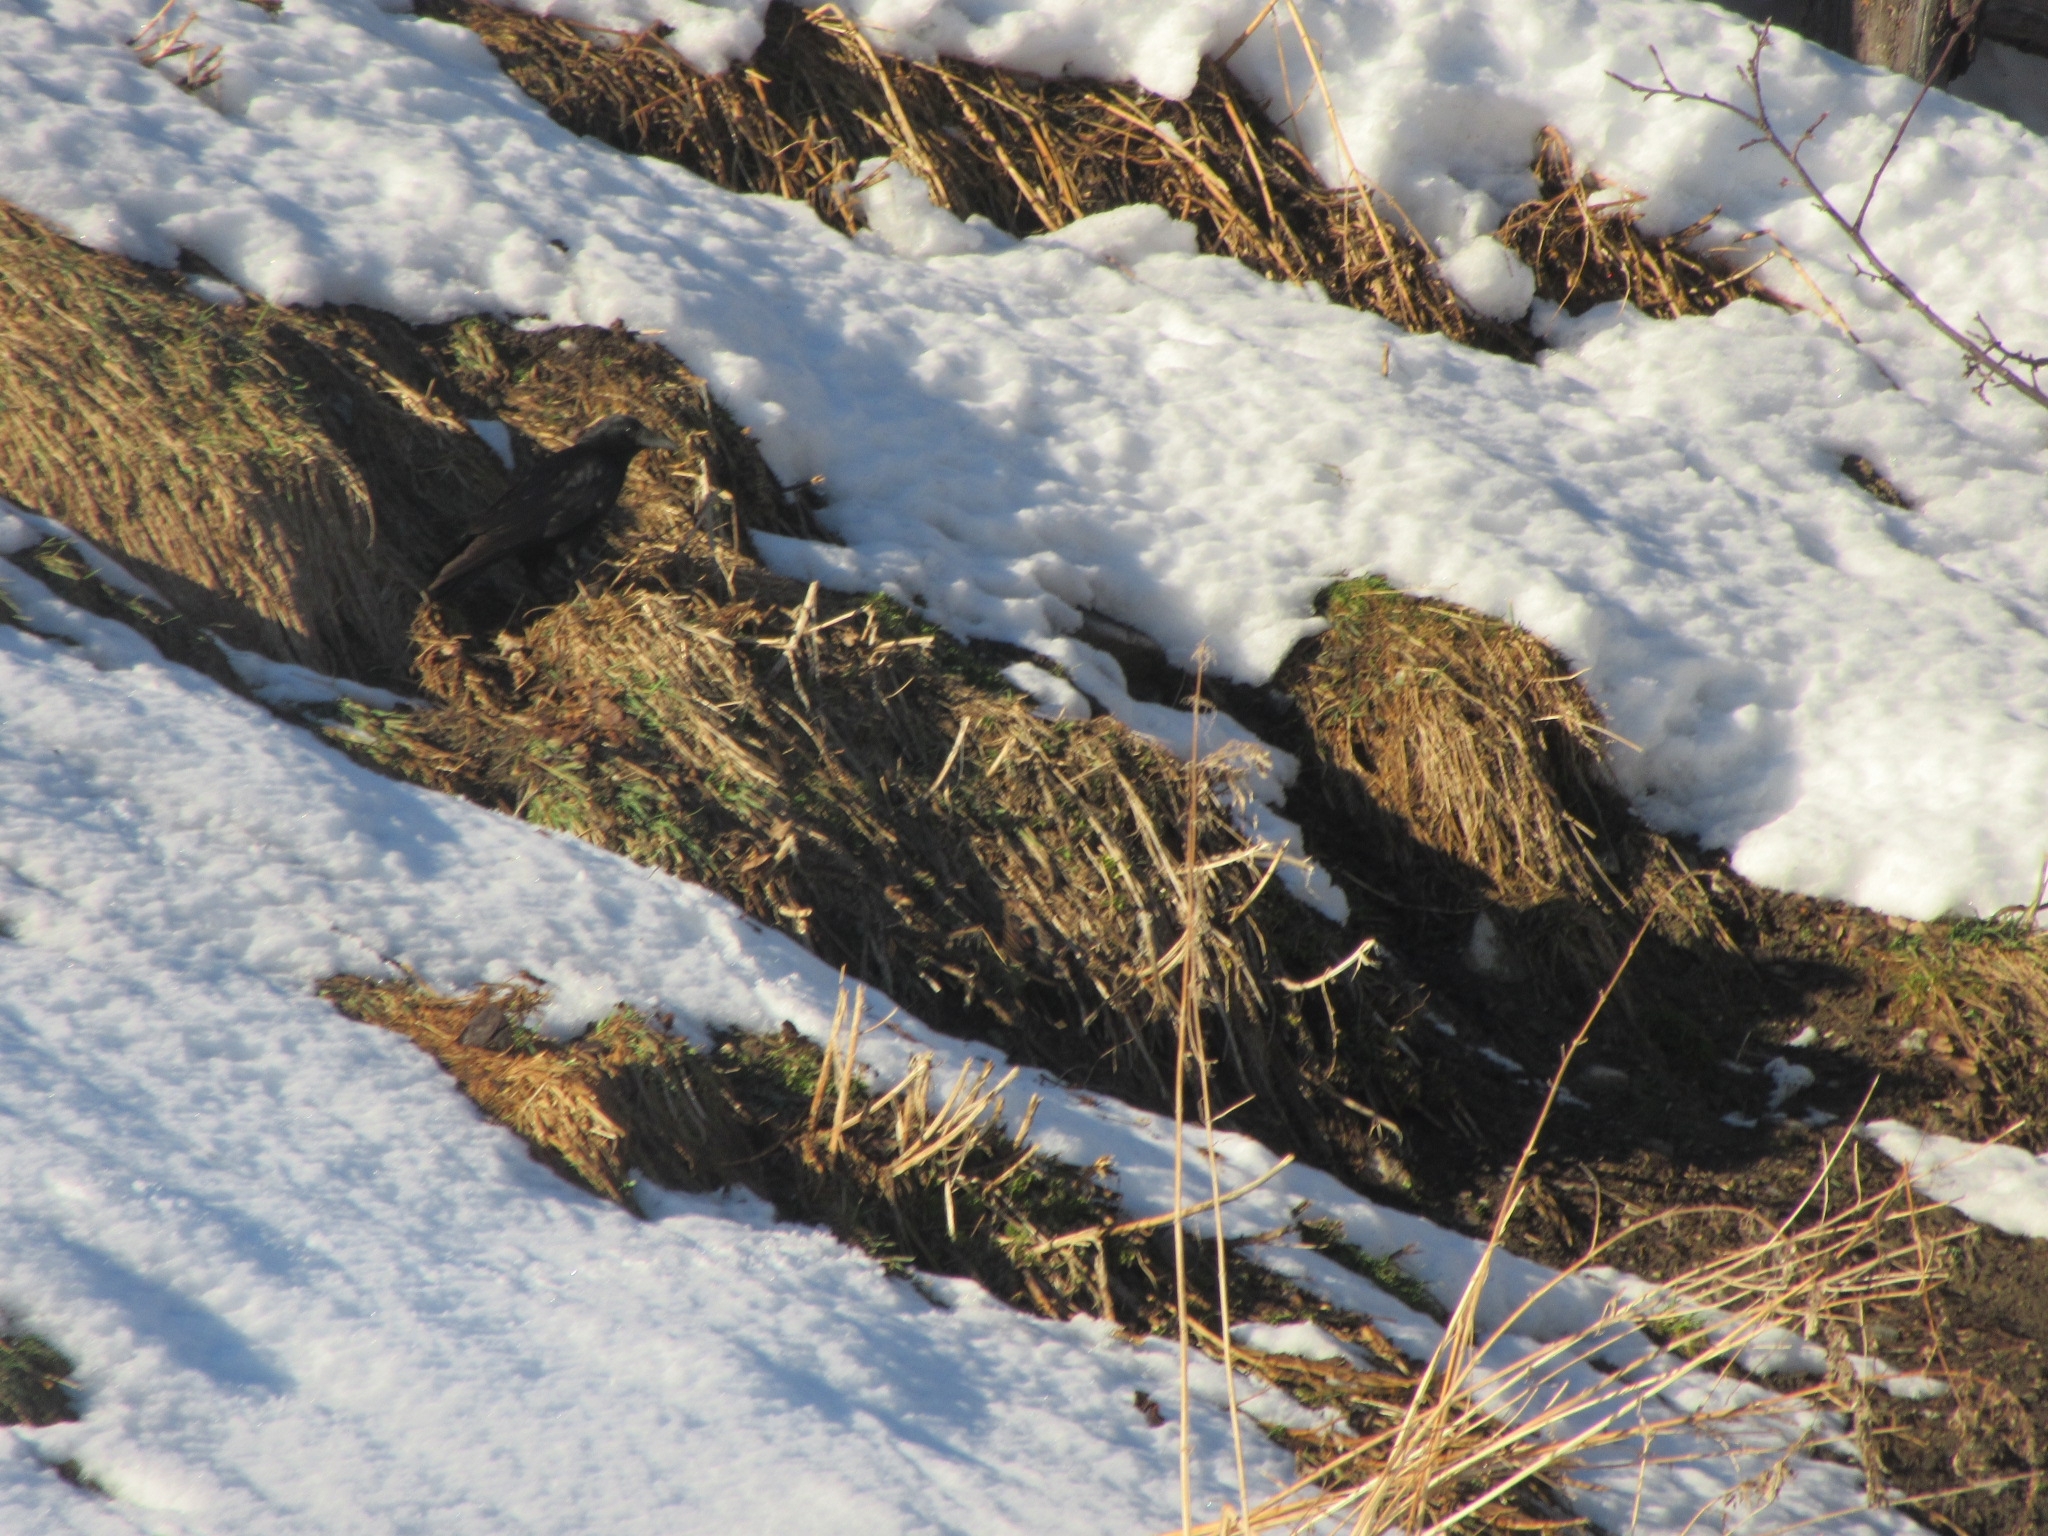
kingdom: Animalia
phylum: Chordata
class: Aves
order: Passeriformes
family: Corvidae
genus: Corvus
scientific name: Corvus corone
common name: Carrion crow
